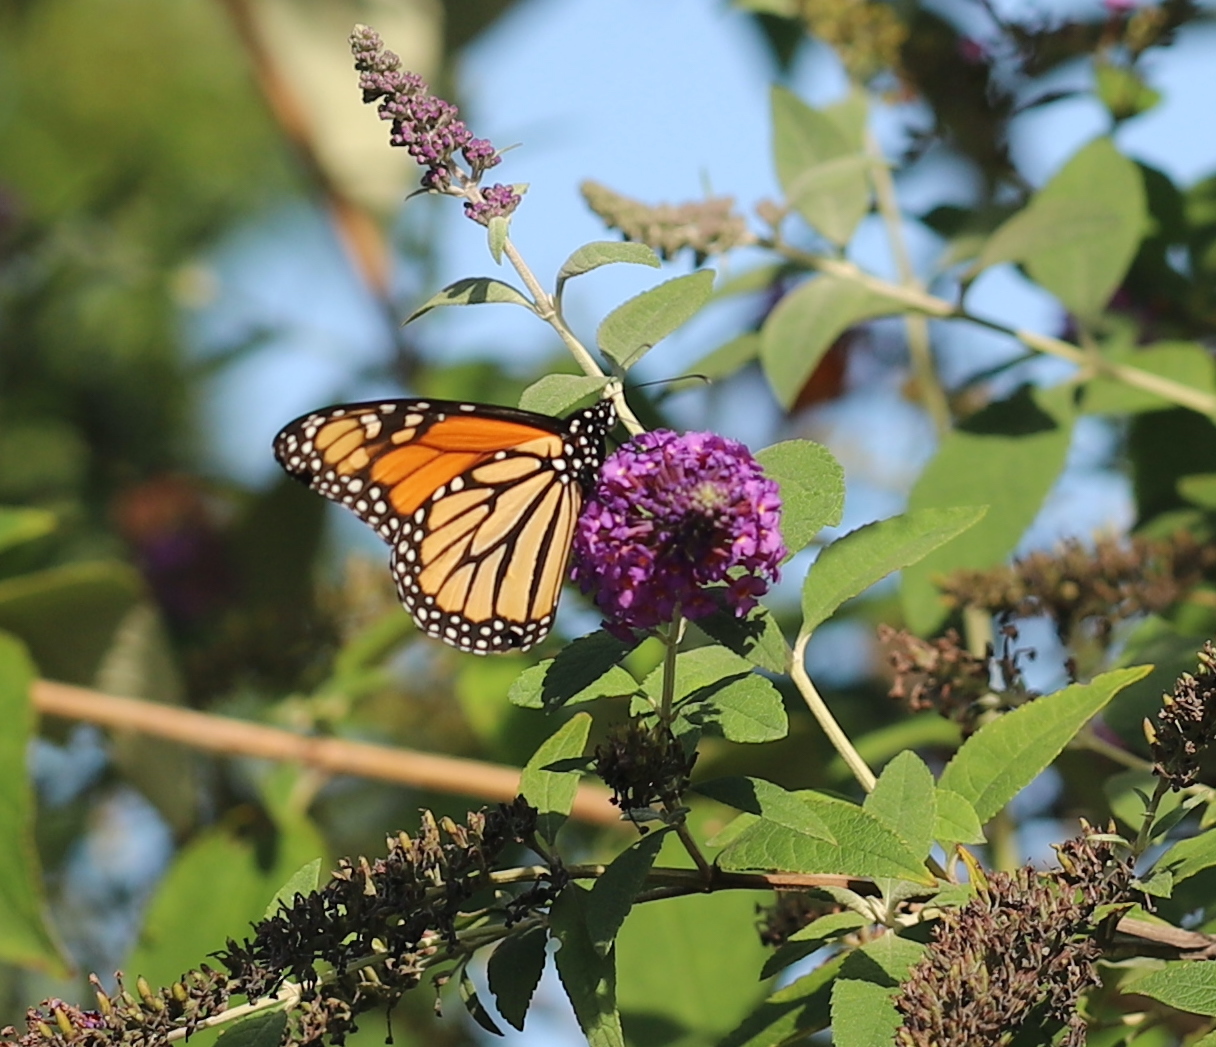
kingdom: Animalia
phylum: Arthropoda
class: Insecta
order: Lepidoptera
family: Nymphalidae
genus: Danaus
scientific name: Danaus plexippus
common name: Monarch
